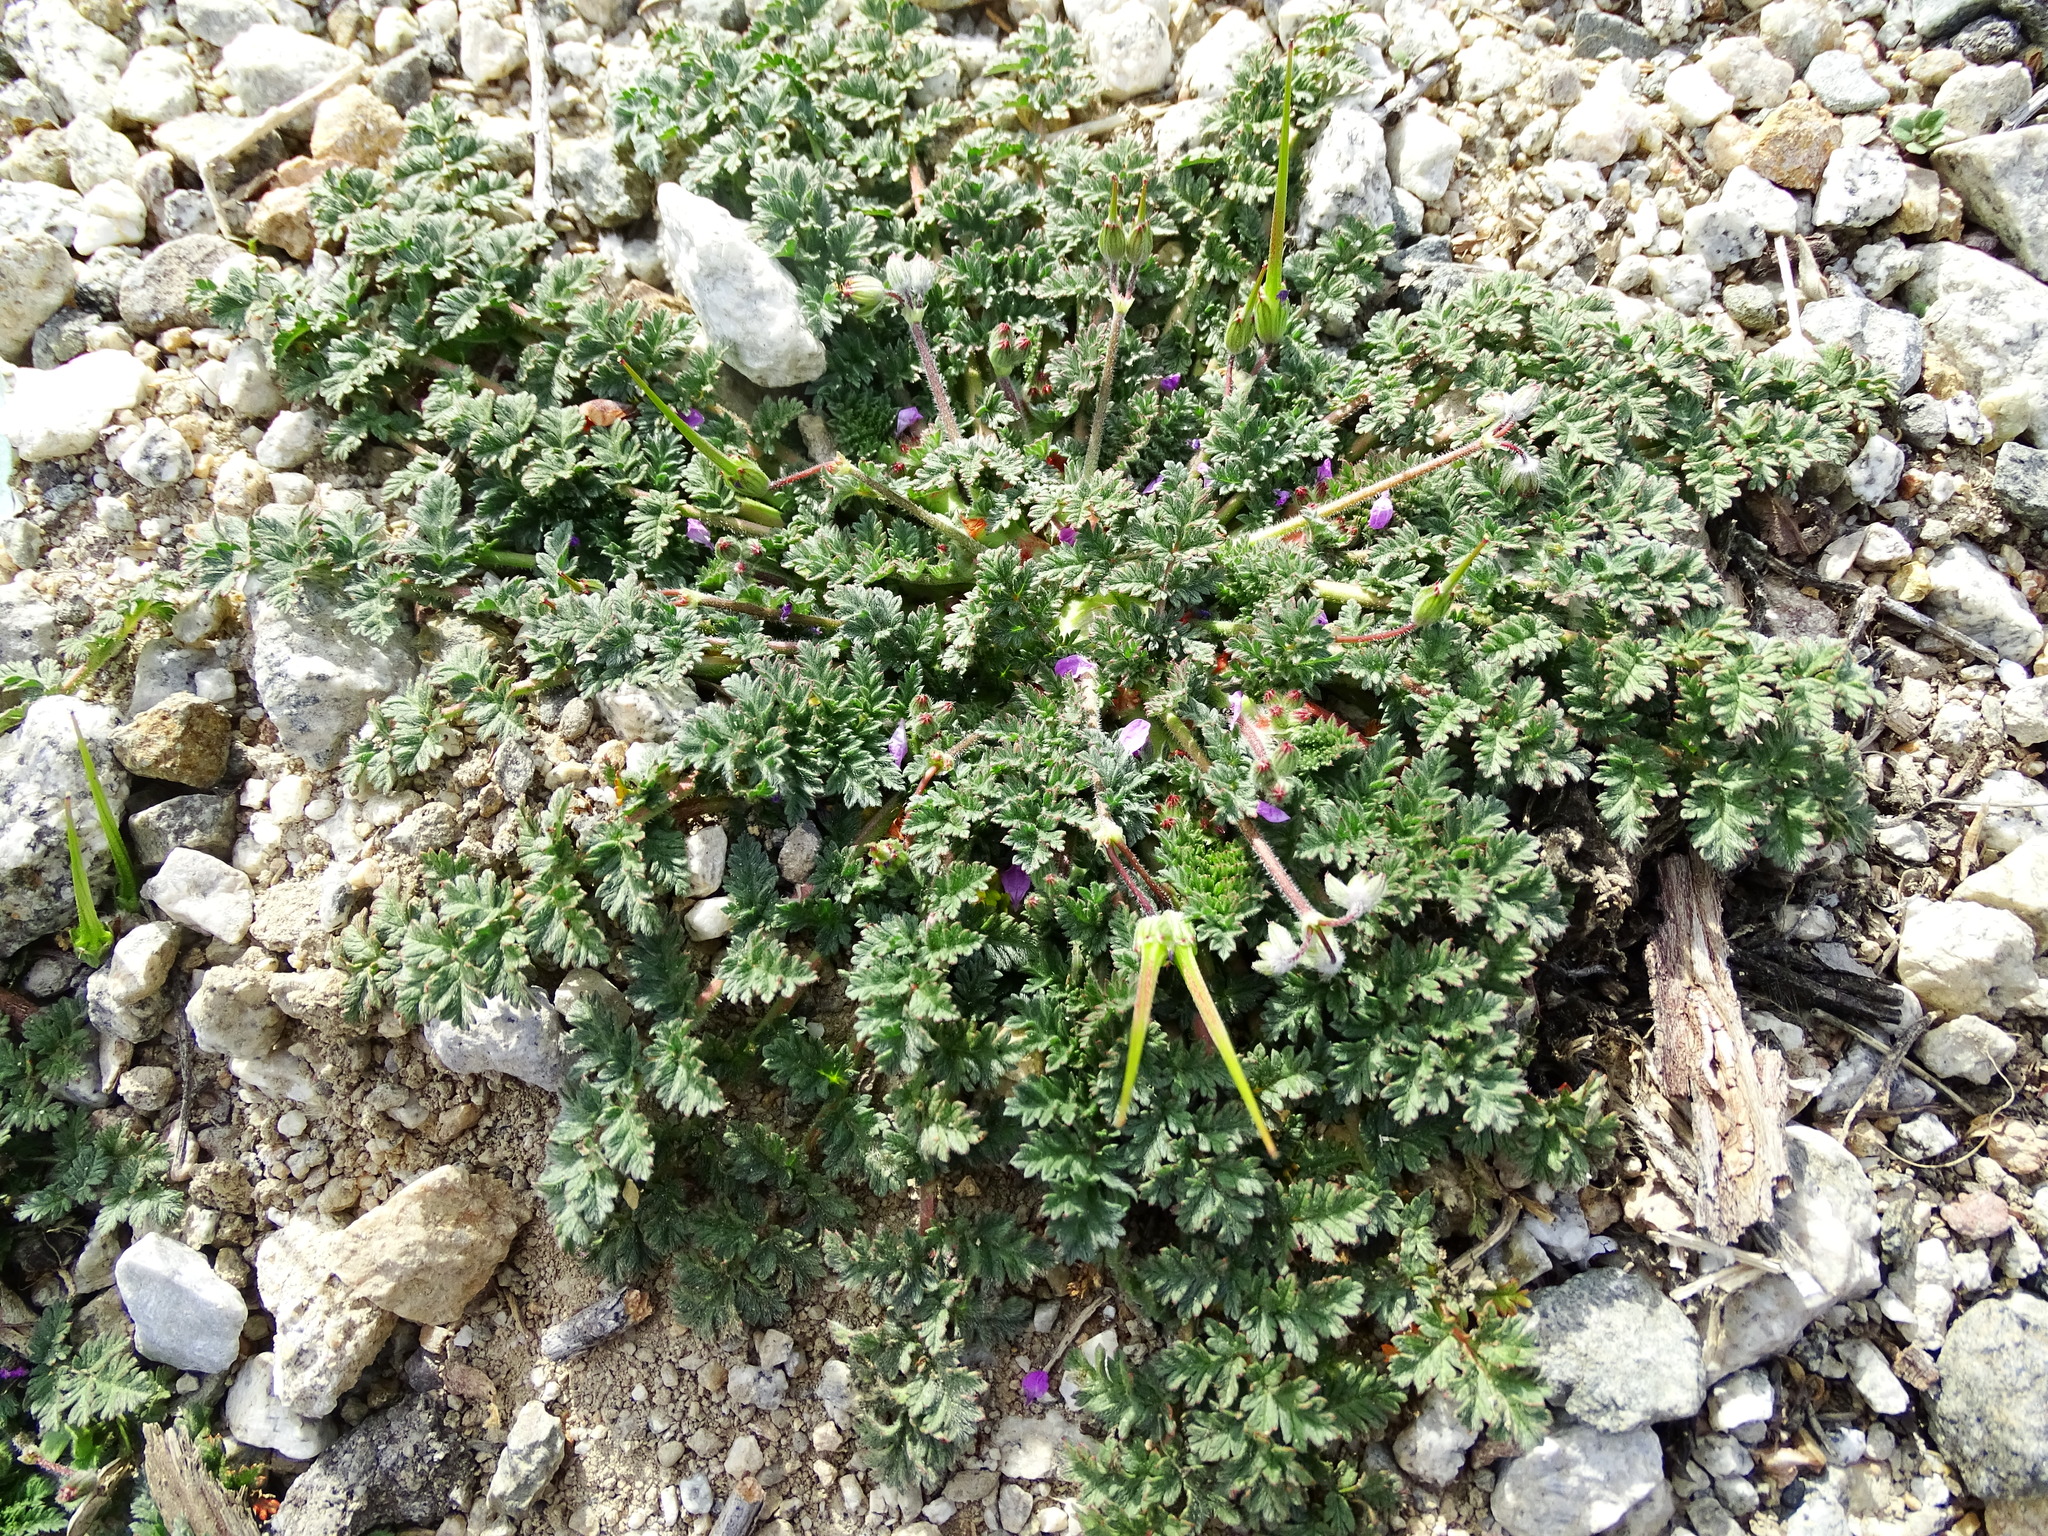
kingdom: Plantae
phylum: Tracheophyta
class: Magnoliopsida
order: Geraniales
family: Geraniaceae
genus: Erodium
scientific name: Erodium cicutarium
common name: Common stork's-bill
